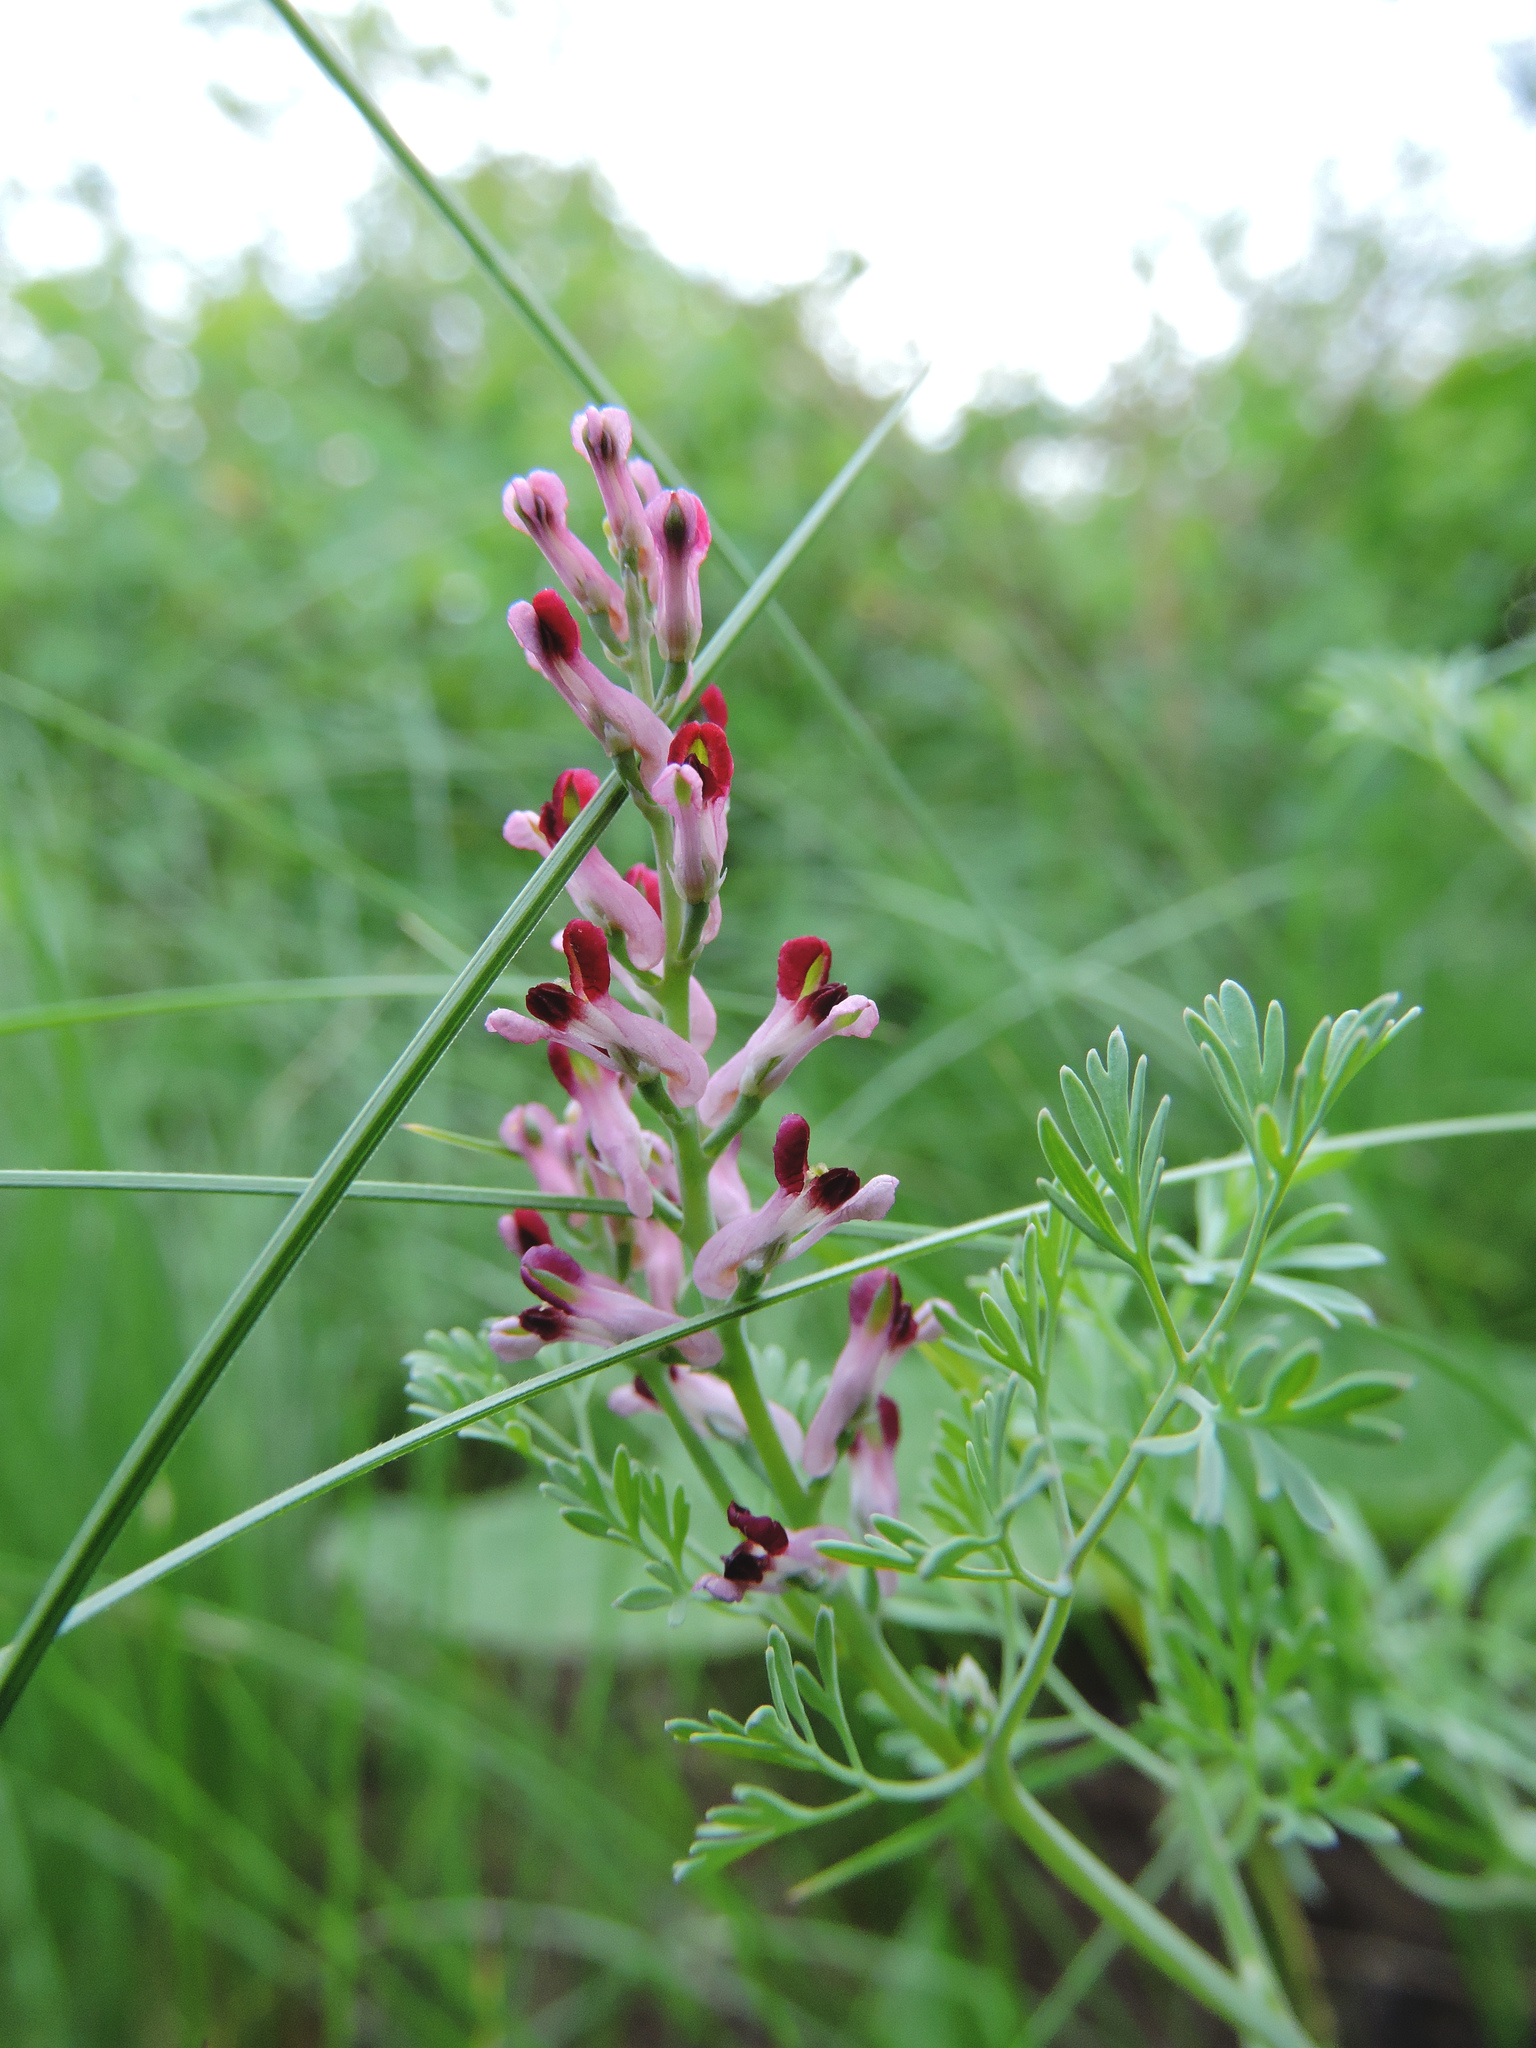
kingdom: Plantae
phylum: Tracheophyta
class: Magnoliopsida
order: Ranunculales
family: Papaveraceae
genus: Fumaria
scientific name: Fumaria schleicheri
